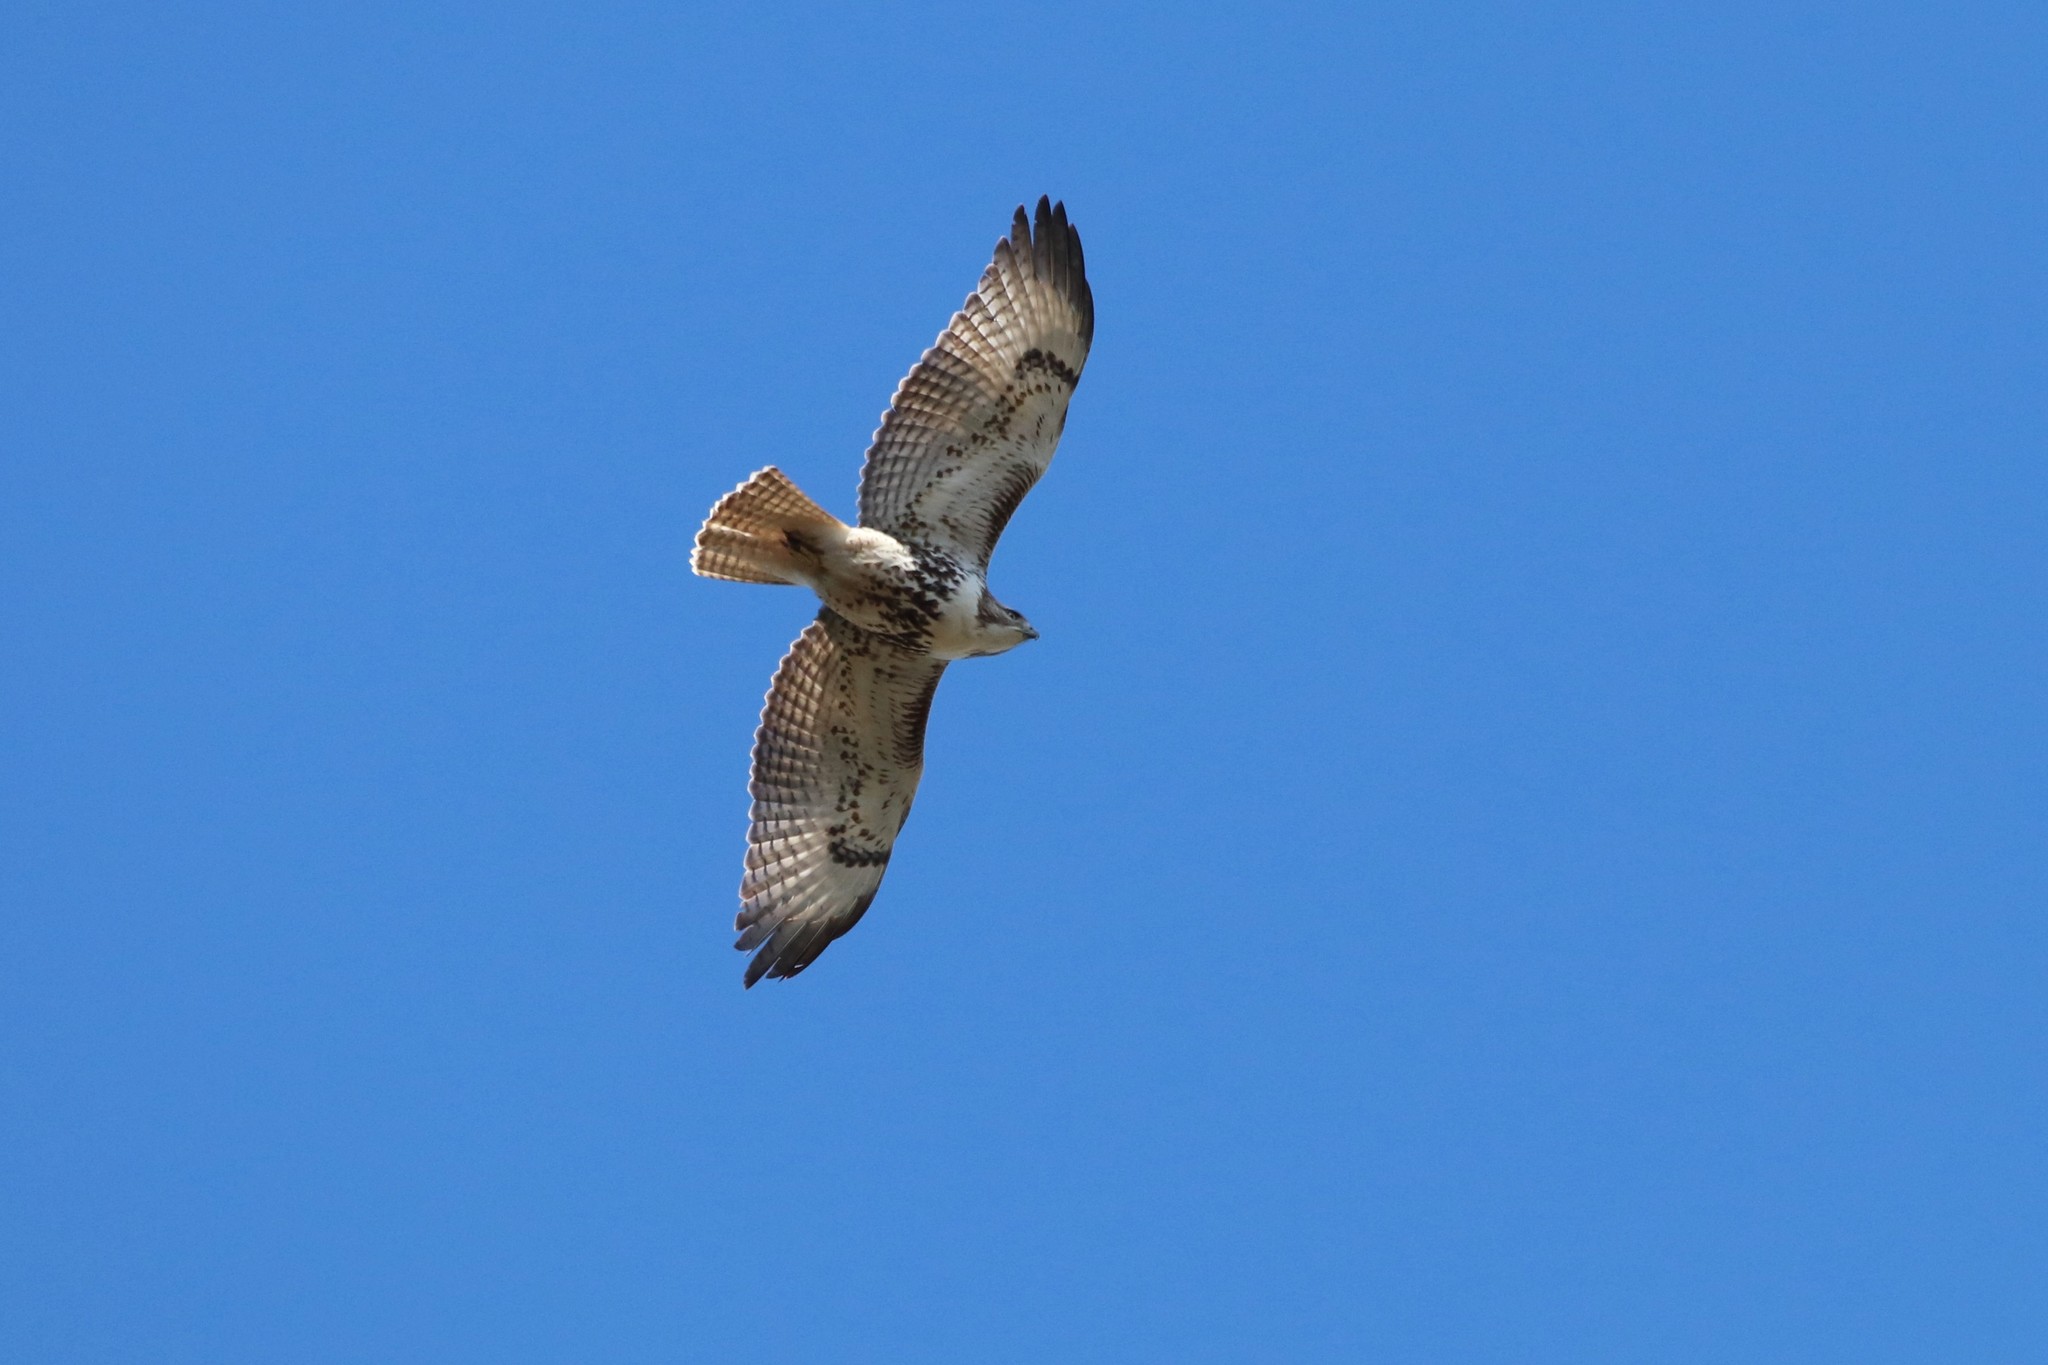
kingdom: Animalia
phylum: Chordata
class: Aves
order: Accipitriformes
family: Accipitridae
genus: Buteo
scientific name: Buteo jamaicensis
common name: Red-tailed hawk
